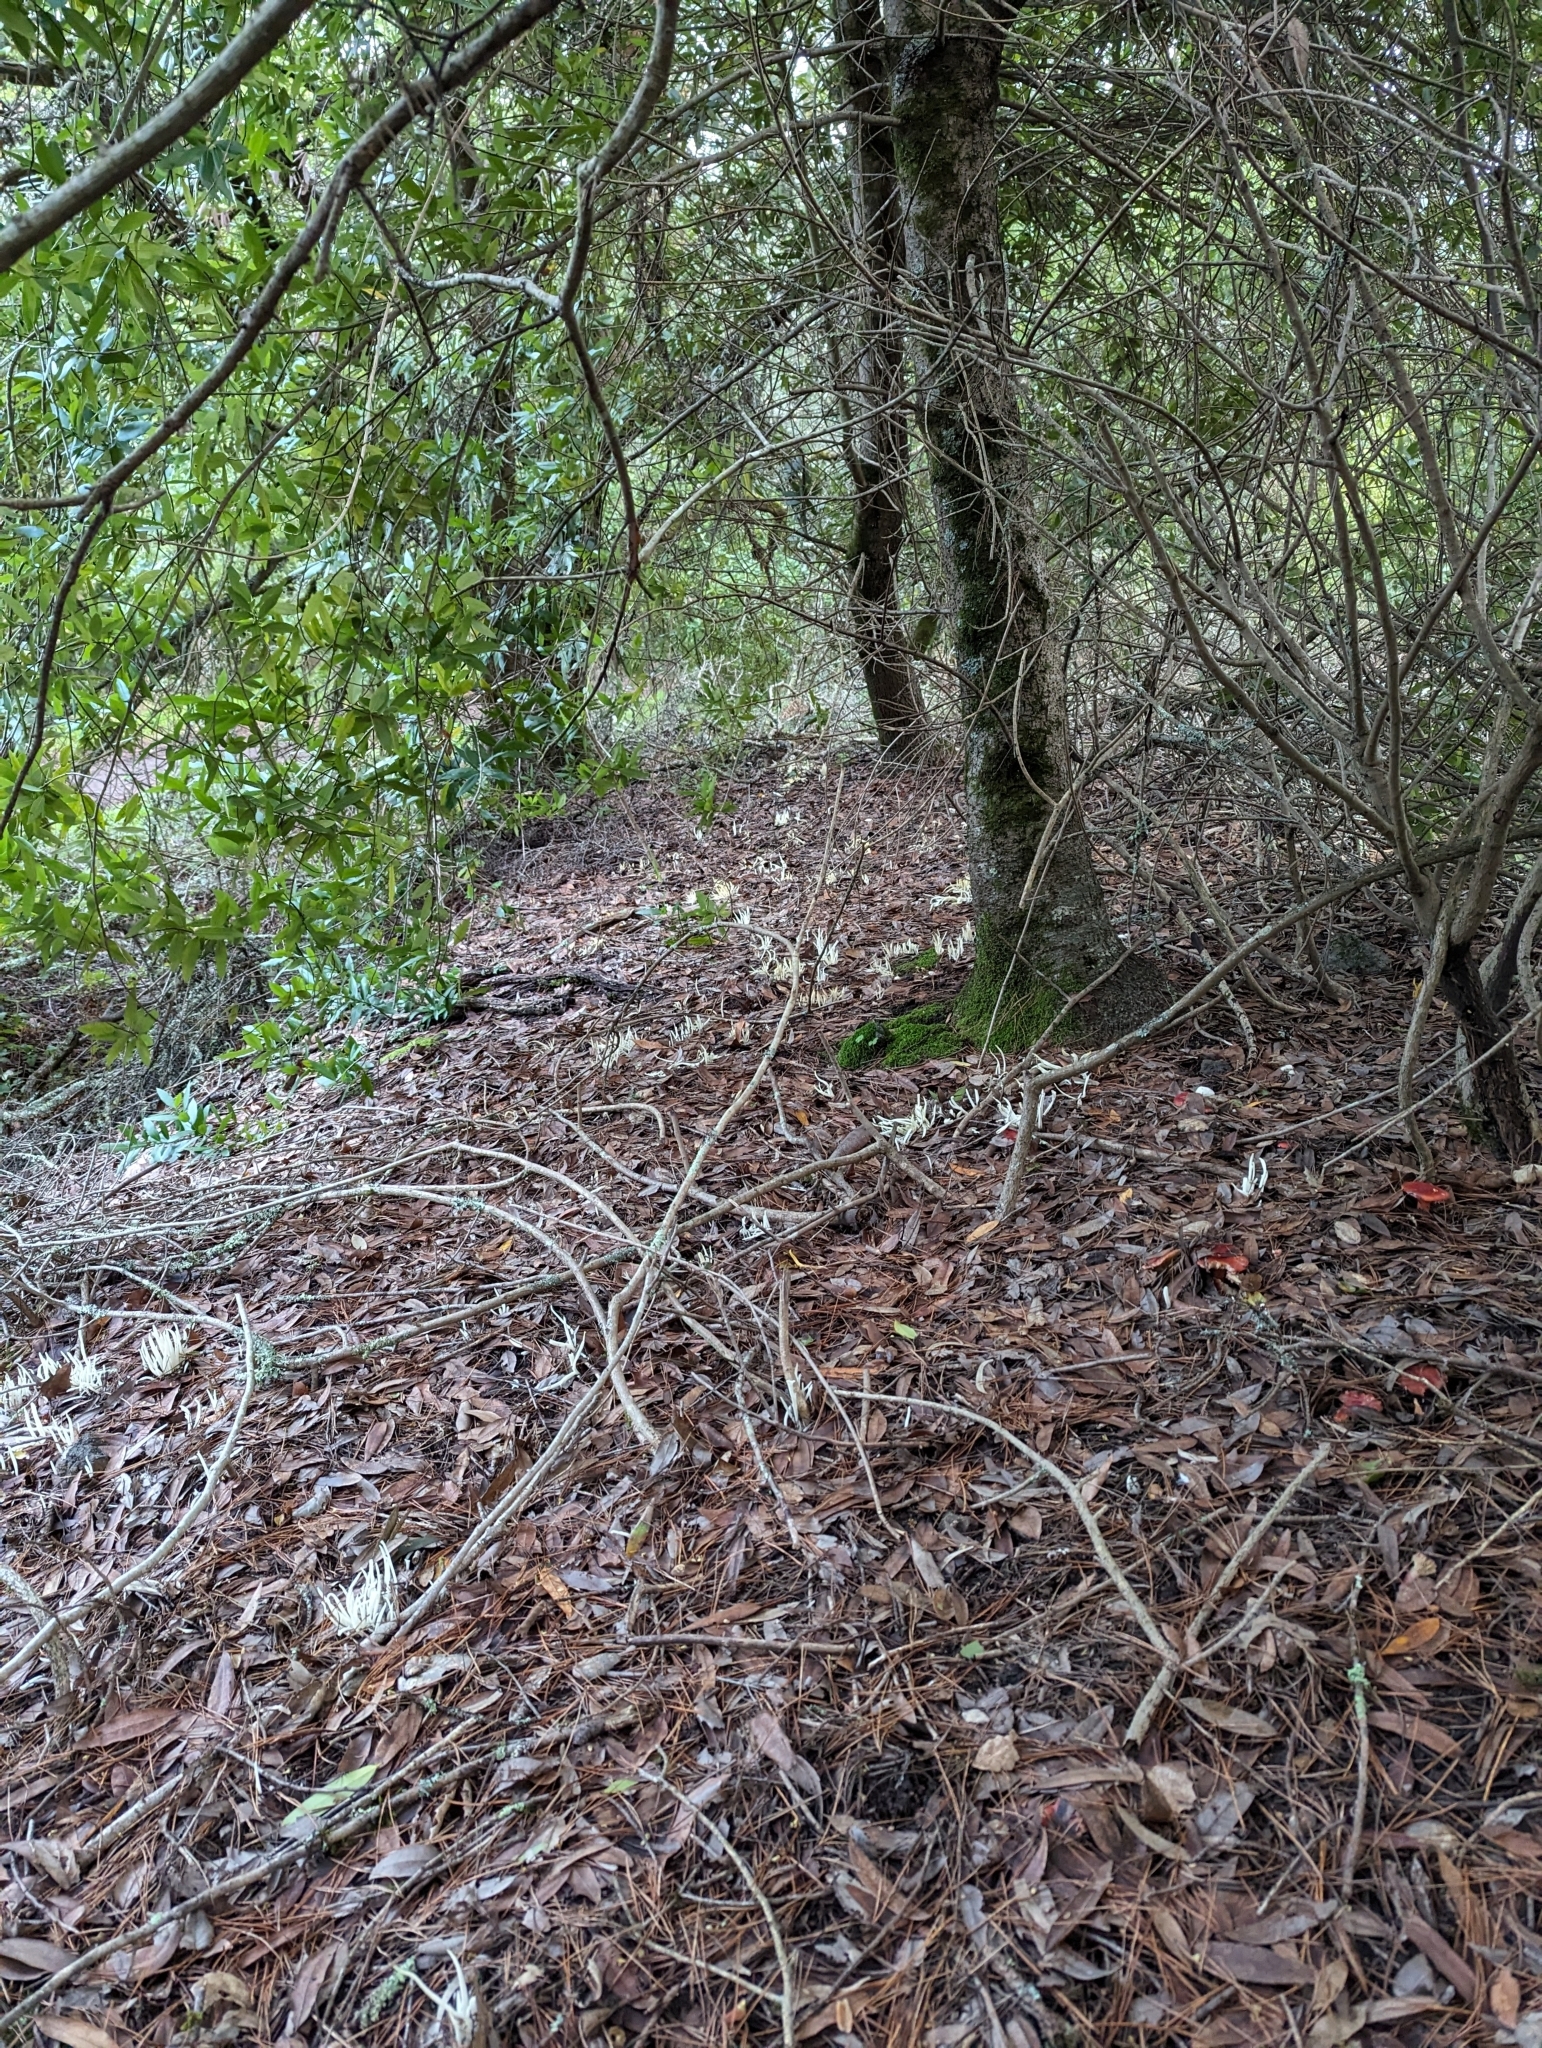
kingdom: Fungi
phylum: Basidiomycota
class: Agaricomycetes
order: Agaricales
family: Clavariaceae
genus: Clavaria
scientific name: Clavaria fragilis
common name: White spindles
